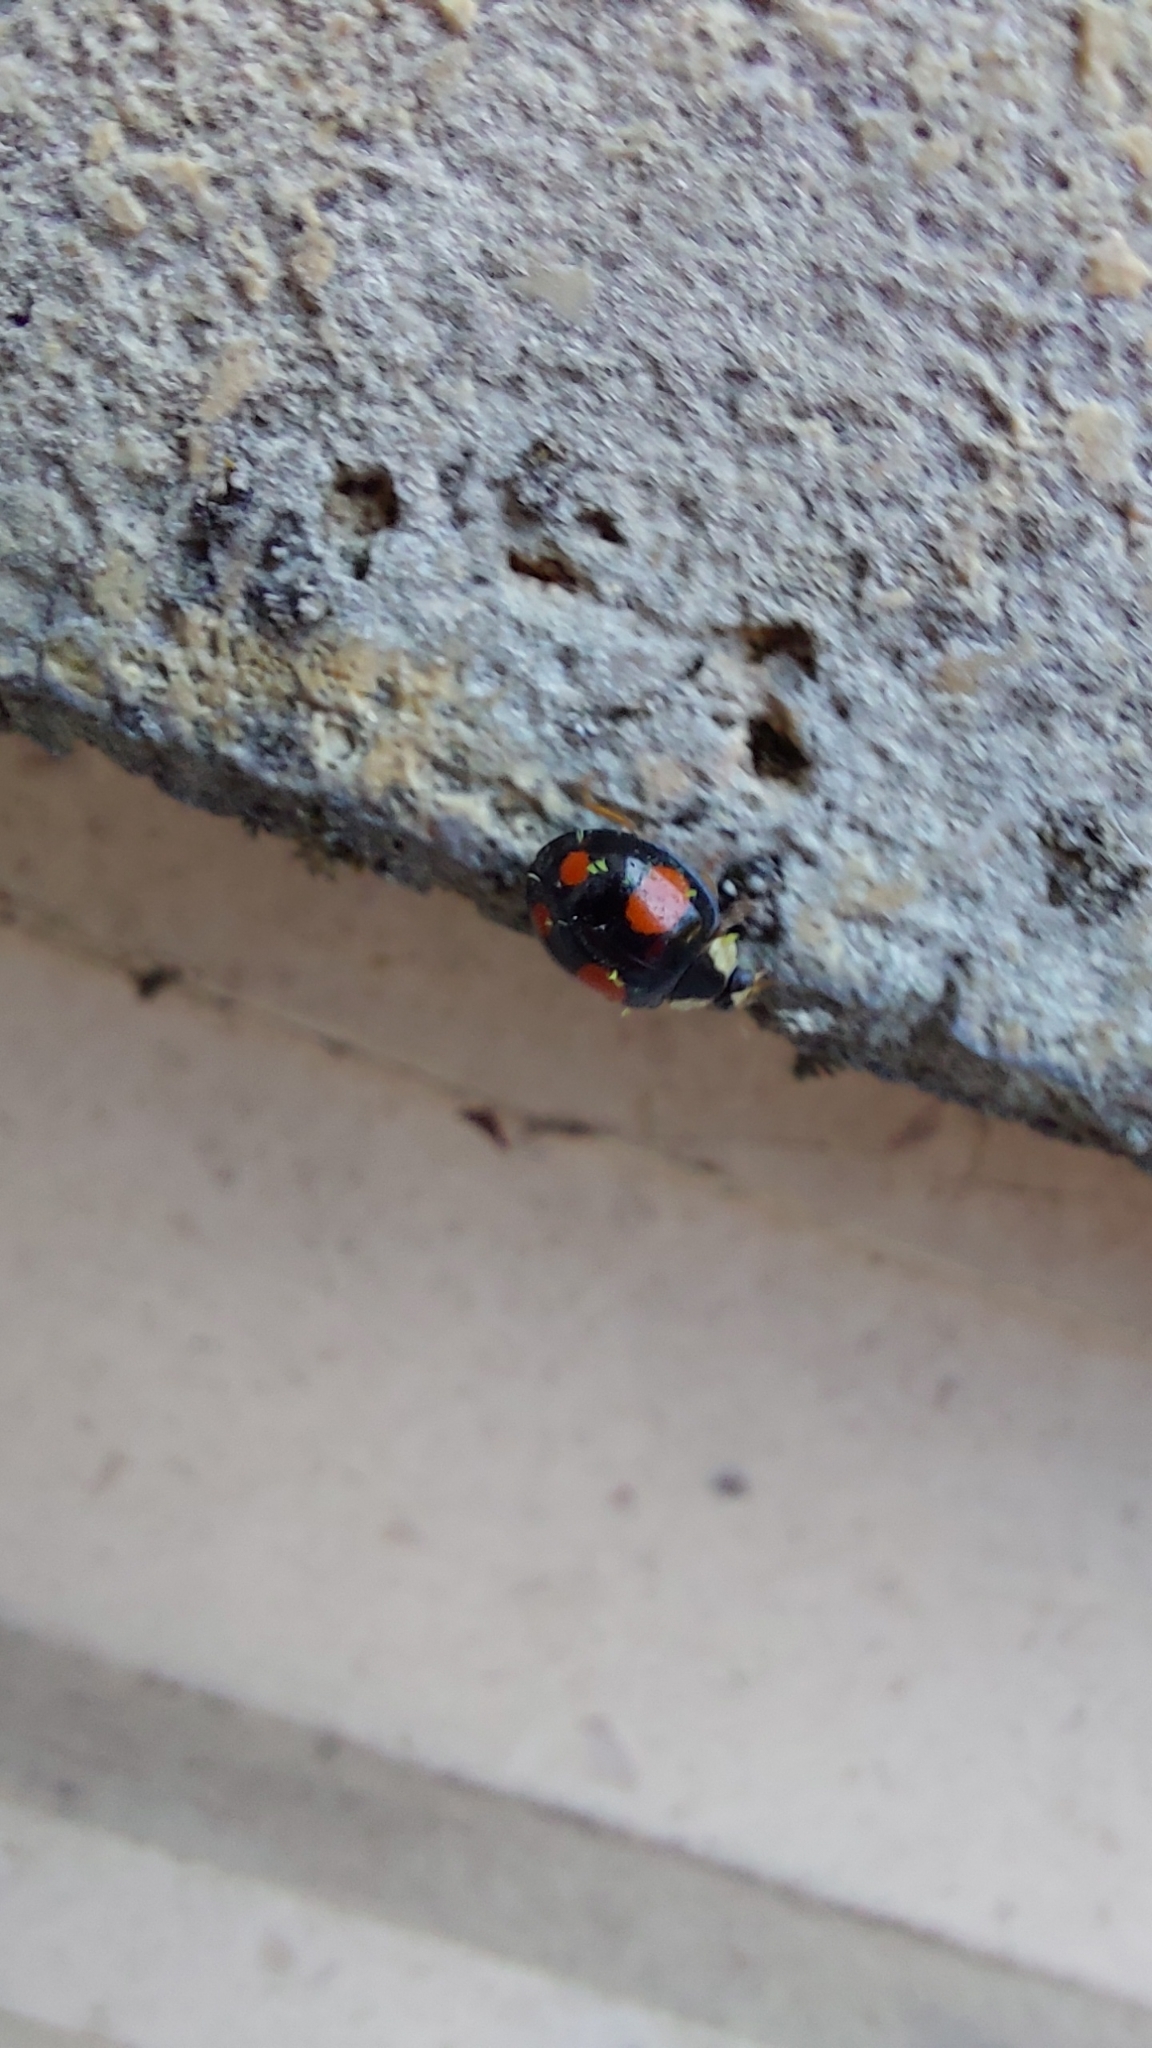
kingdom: Animalia
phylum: Arthropoda
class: Insecta
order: Coleoptera
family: Coccinellidae
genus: Harmonia
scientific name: Harmonia axyridis
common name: Harlequin ladybird
